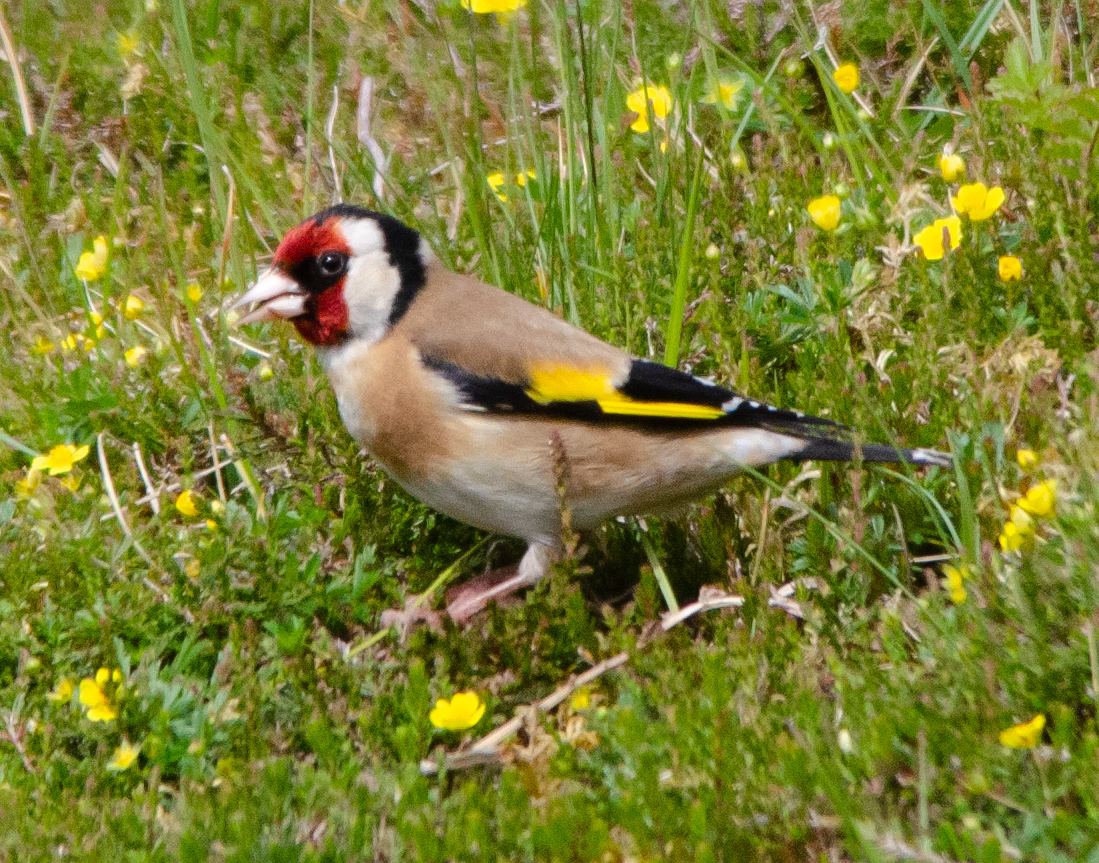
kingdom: Animalia
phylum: Chordata
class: Aves
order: Passeriformes
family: Fringillidae
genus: Carduelis
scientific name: Carduelis carduelis
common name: European goldfinch
